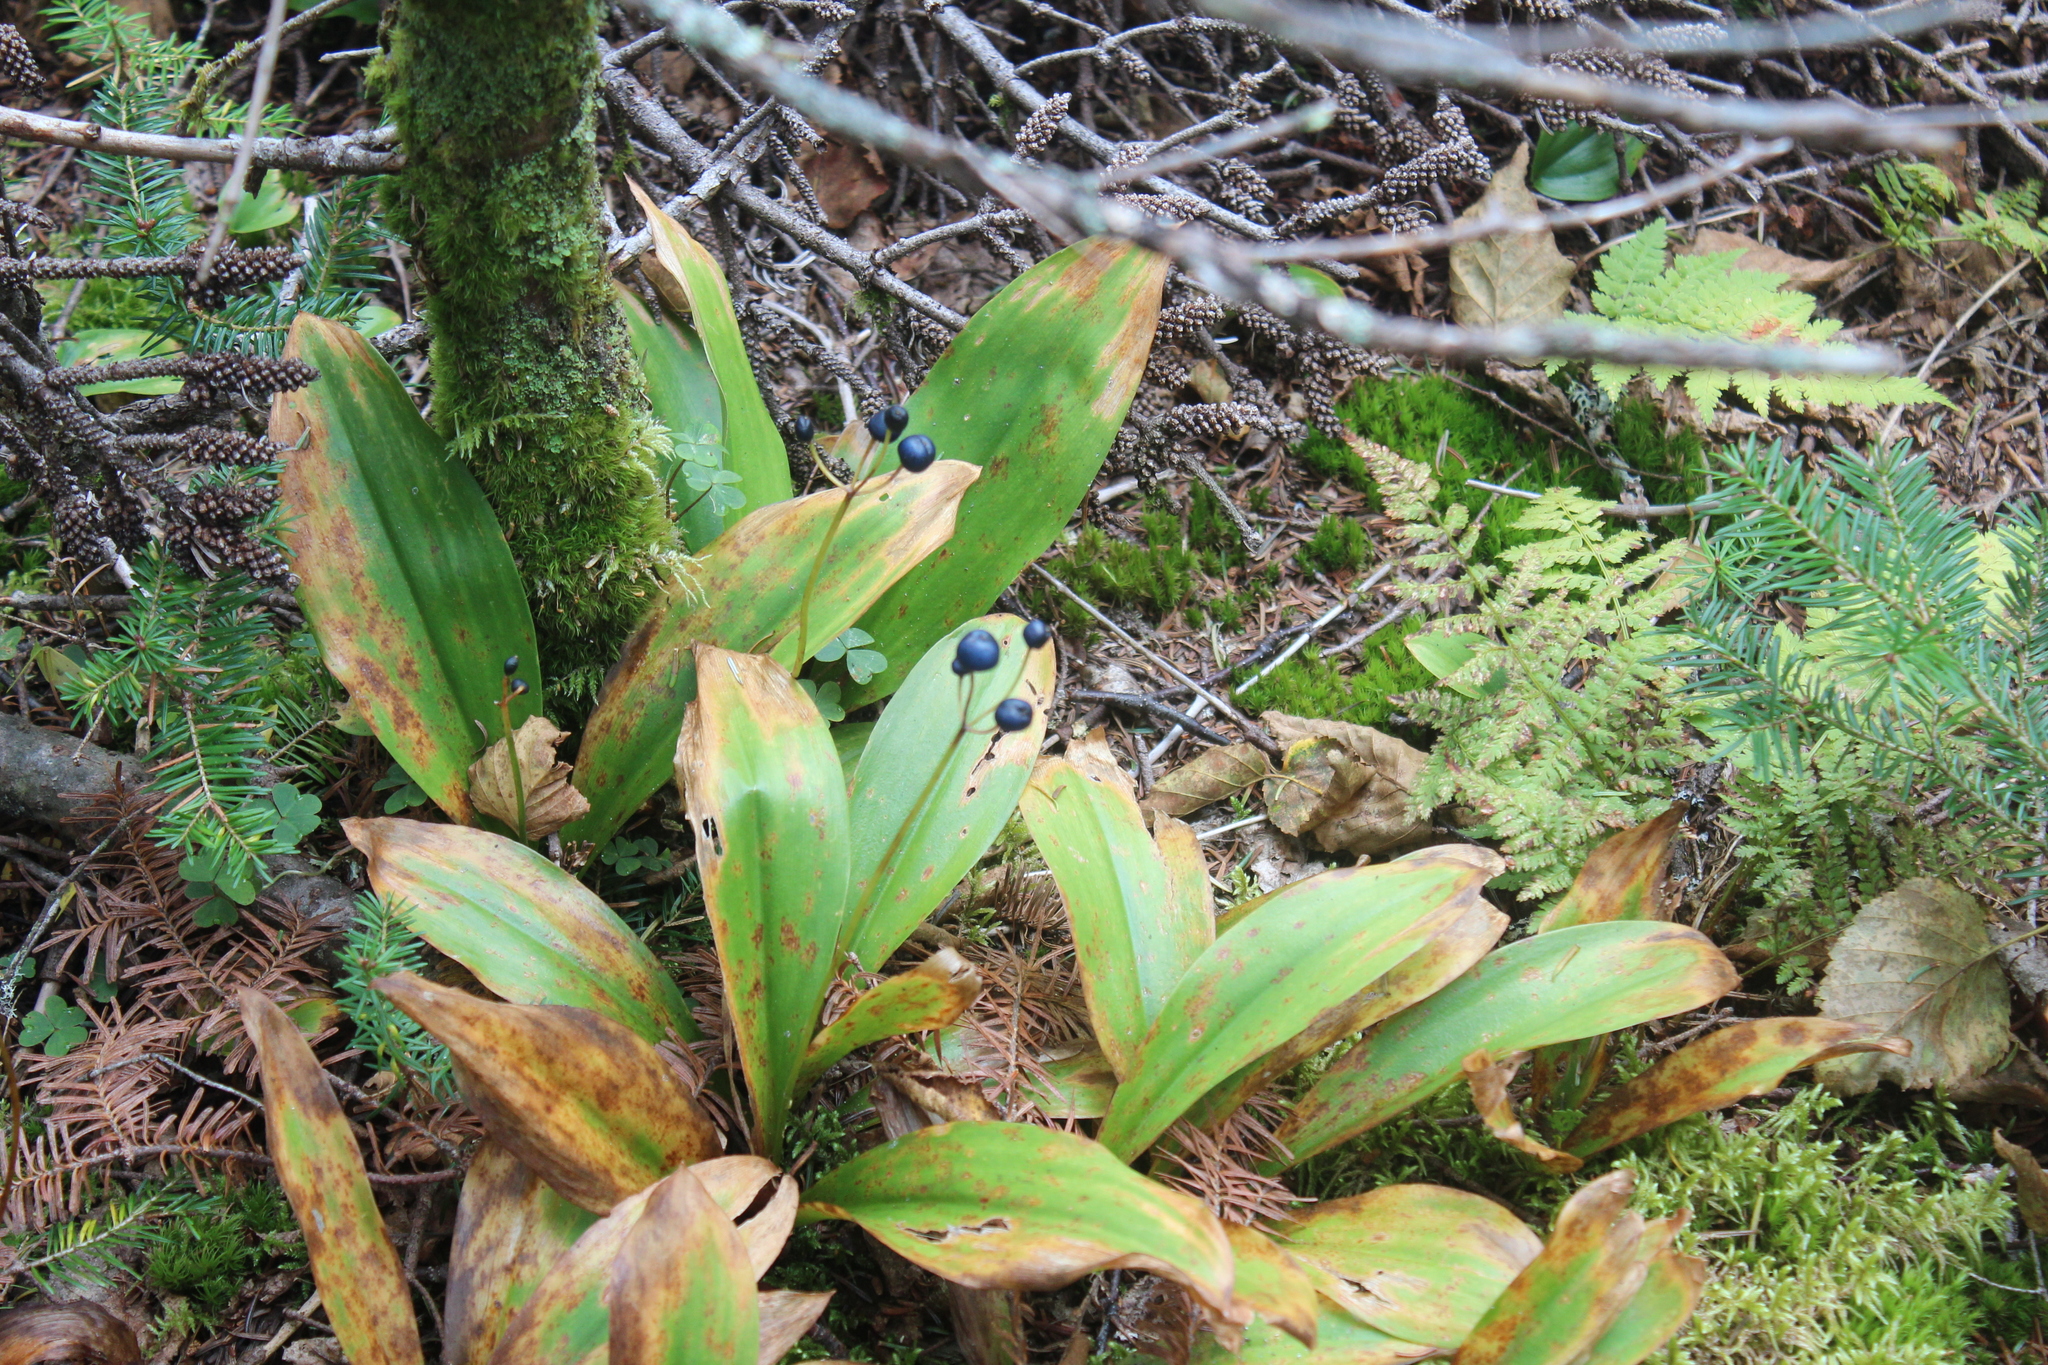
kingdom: Plantae
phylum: Tracheophyta
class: Liliopsida
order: Liliales
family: Liliaceae
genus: Clintonia
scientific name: Clintonia borealis
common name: Yellow clintonia
